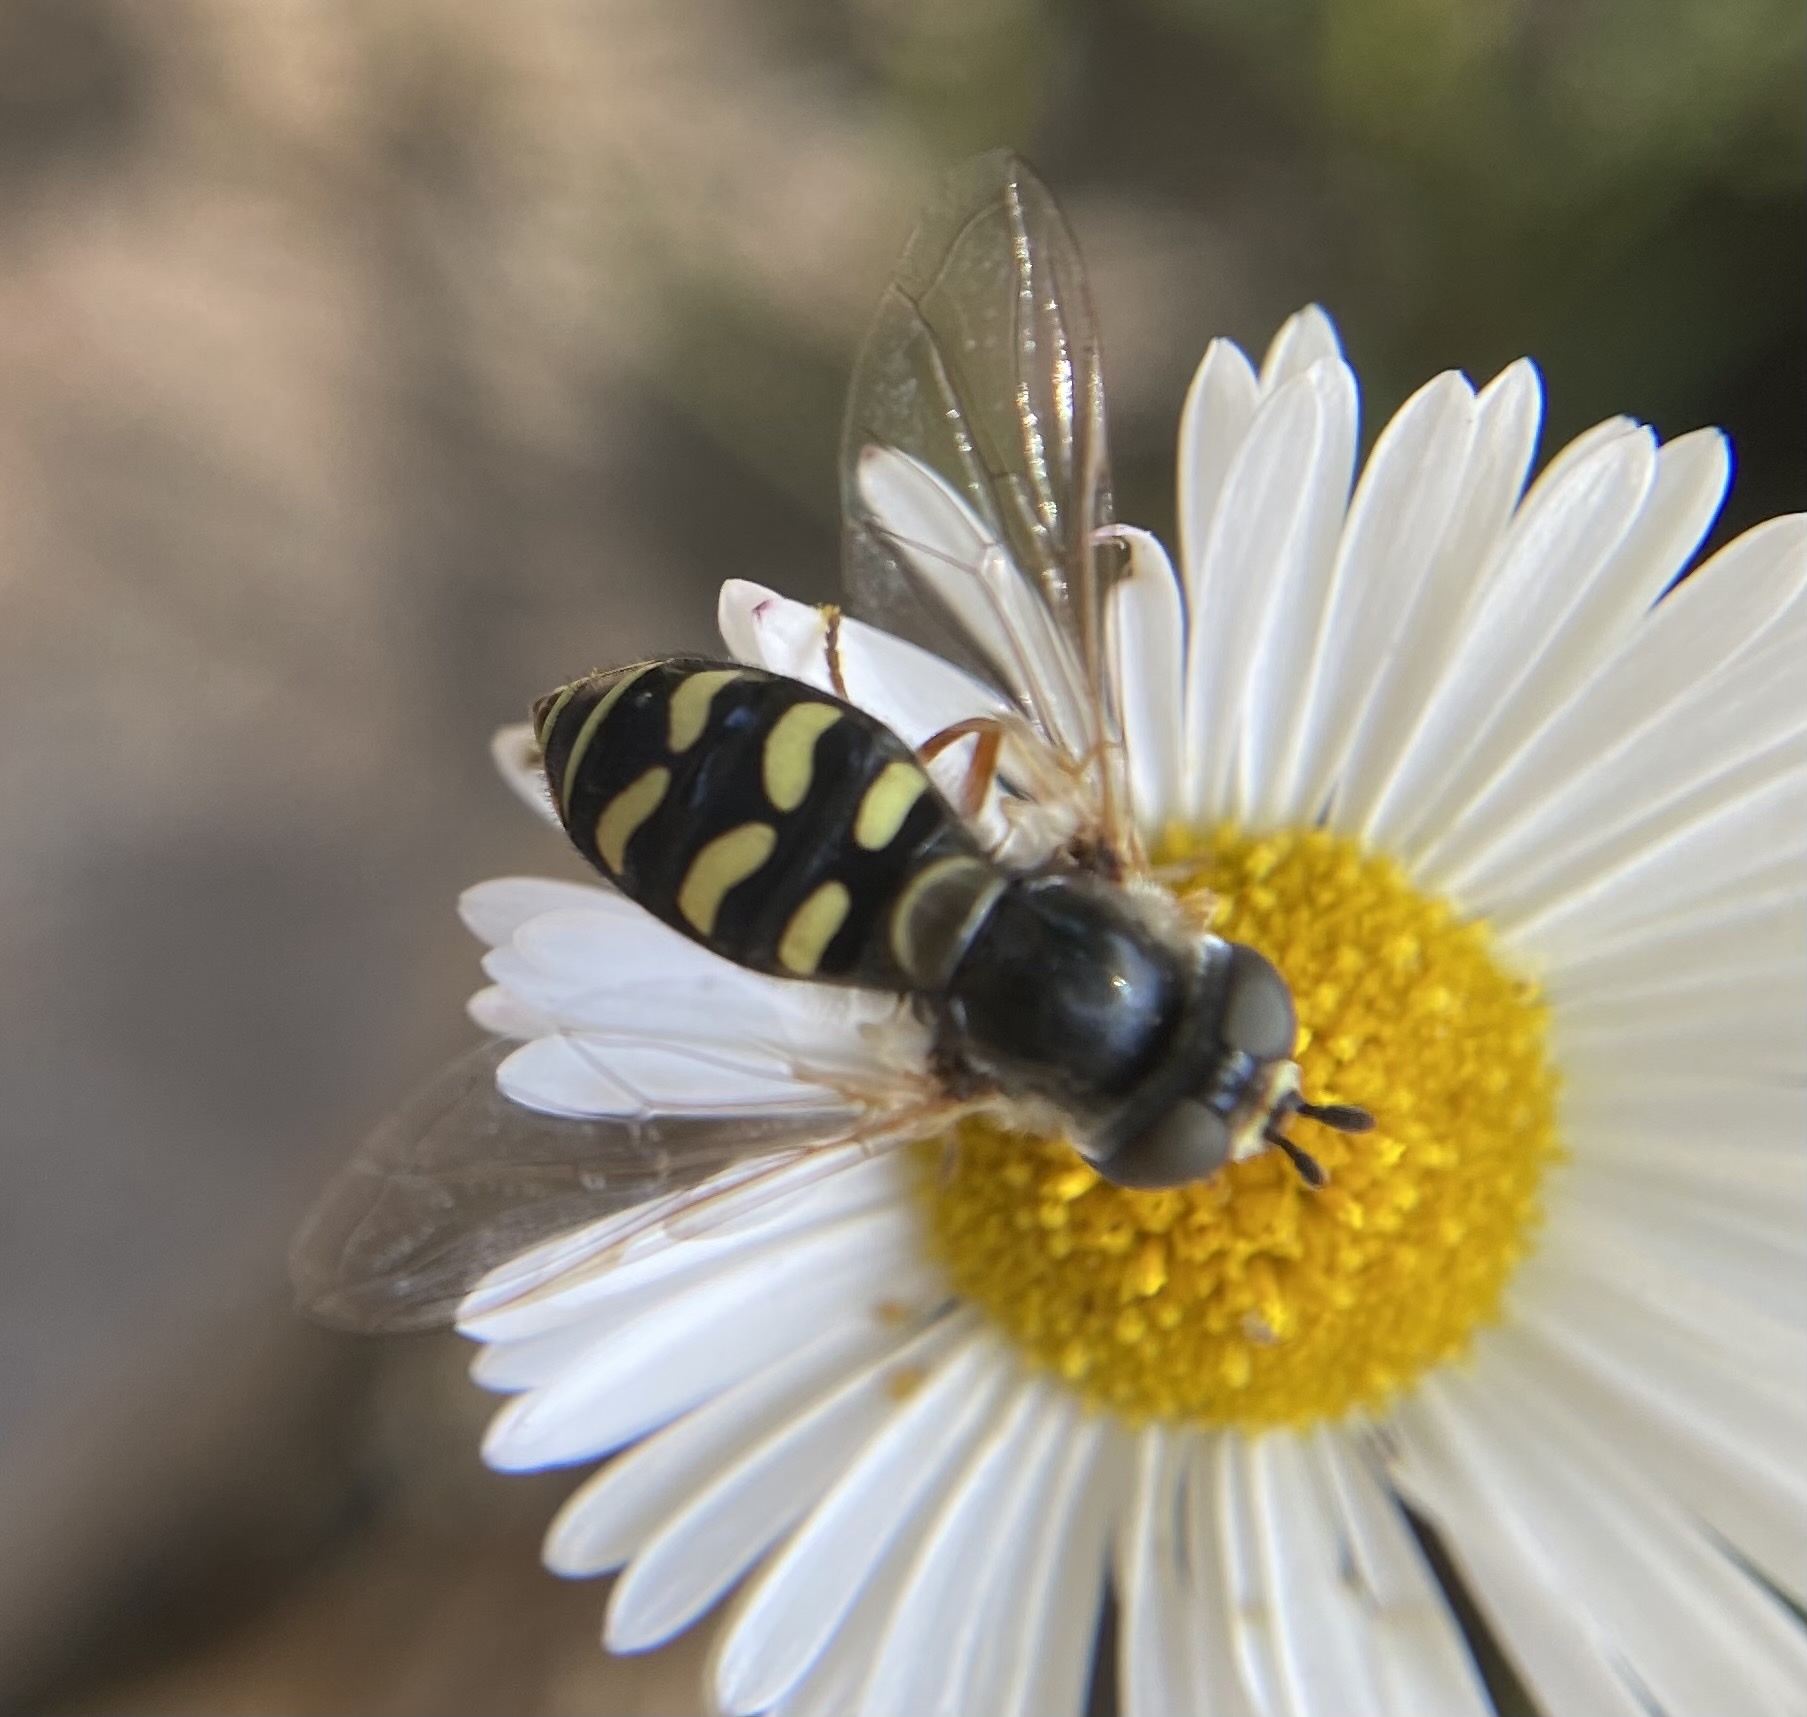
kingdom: Animalia
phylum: Arthropoda
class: Insecta
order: Diptera
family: Syrphidae
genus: Eupeodes
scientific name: Eupeodes volucris
